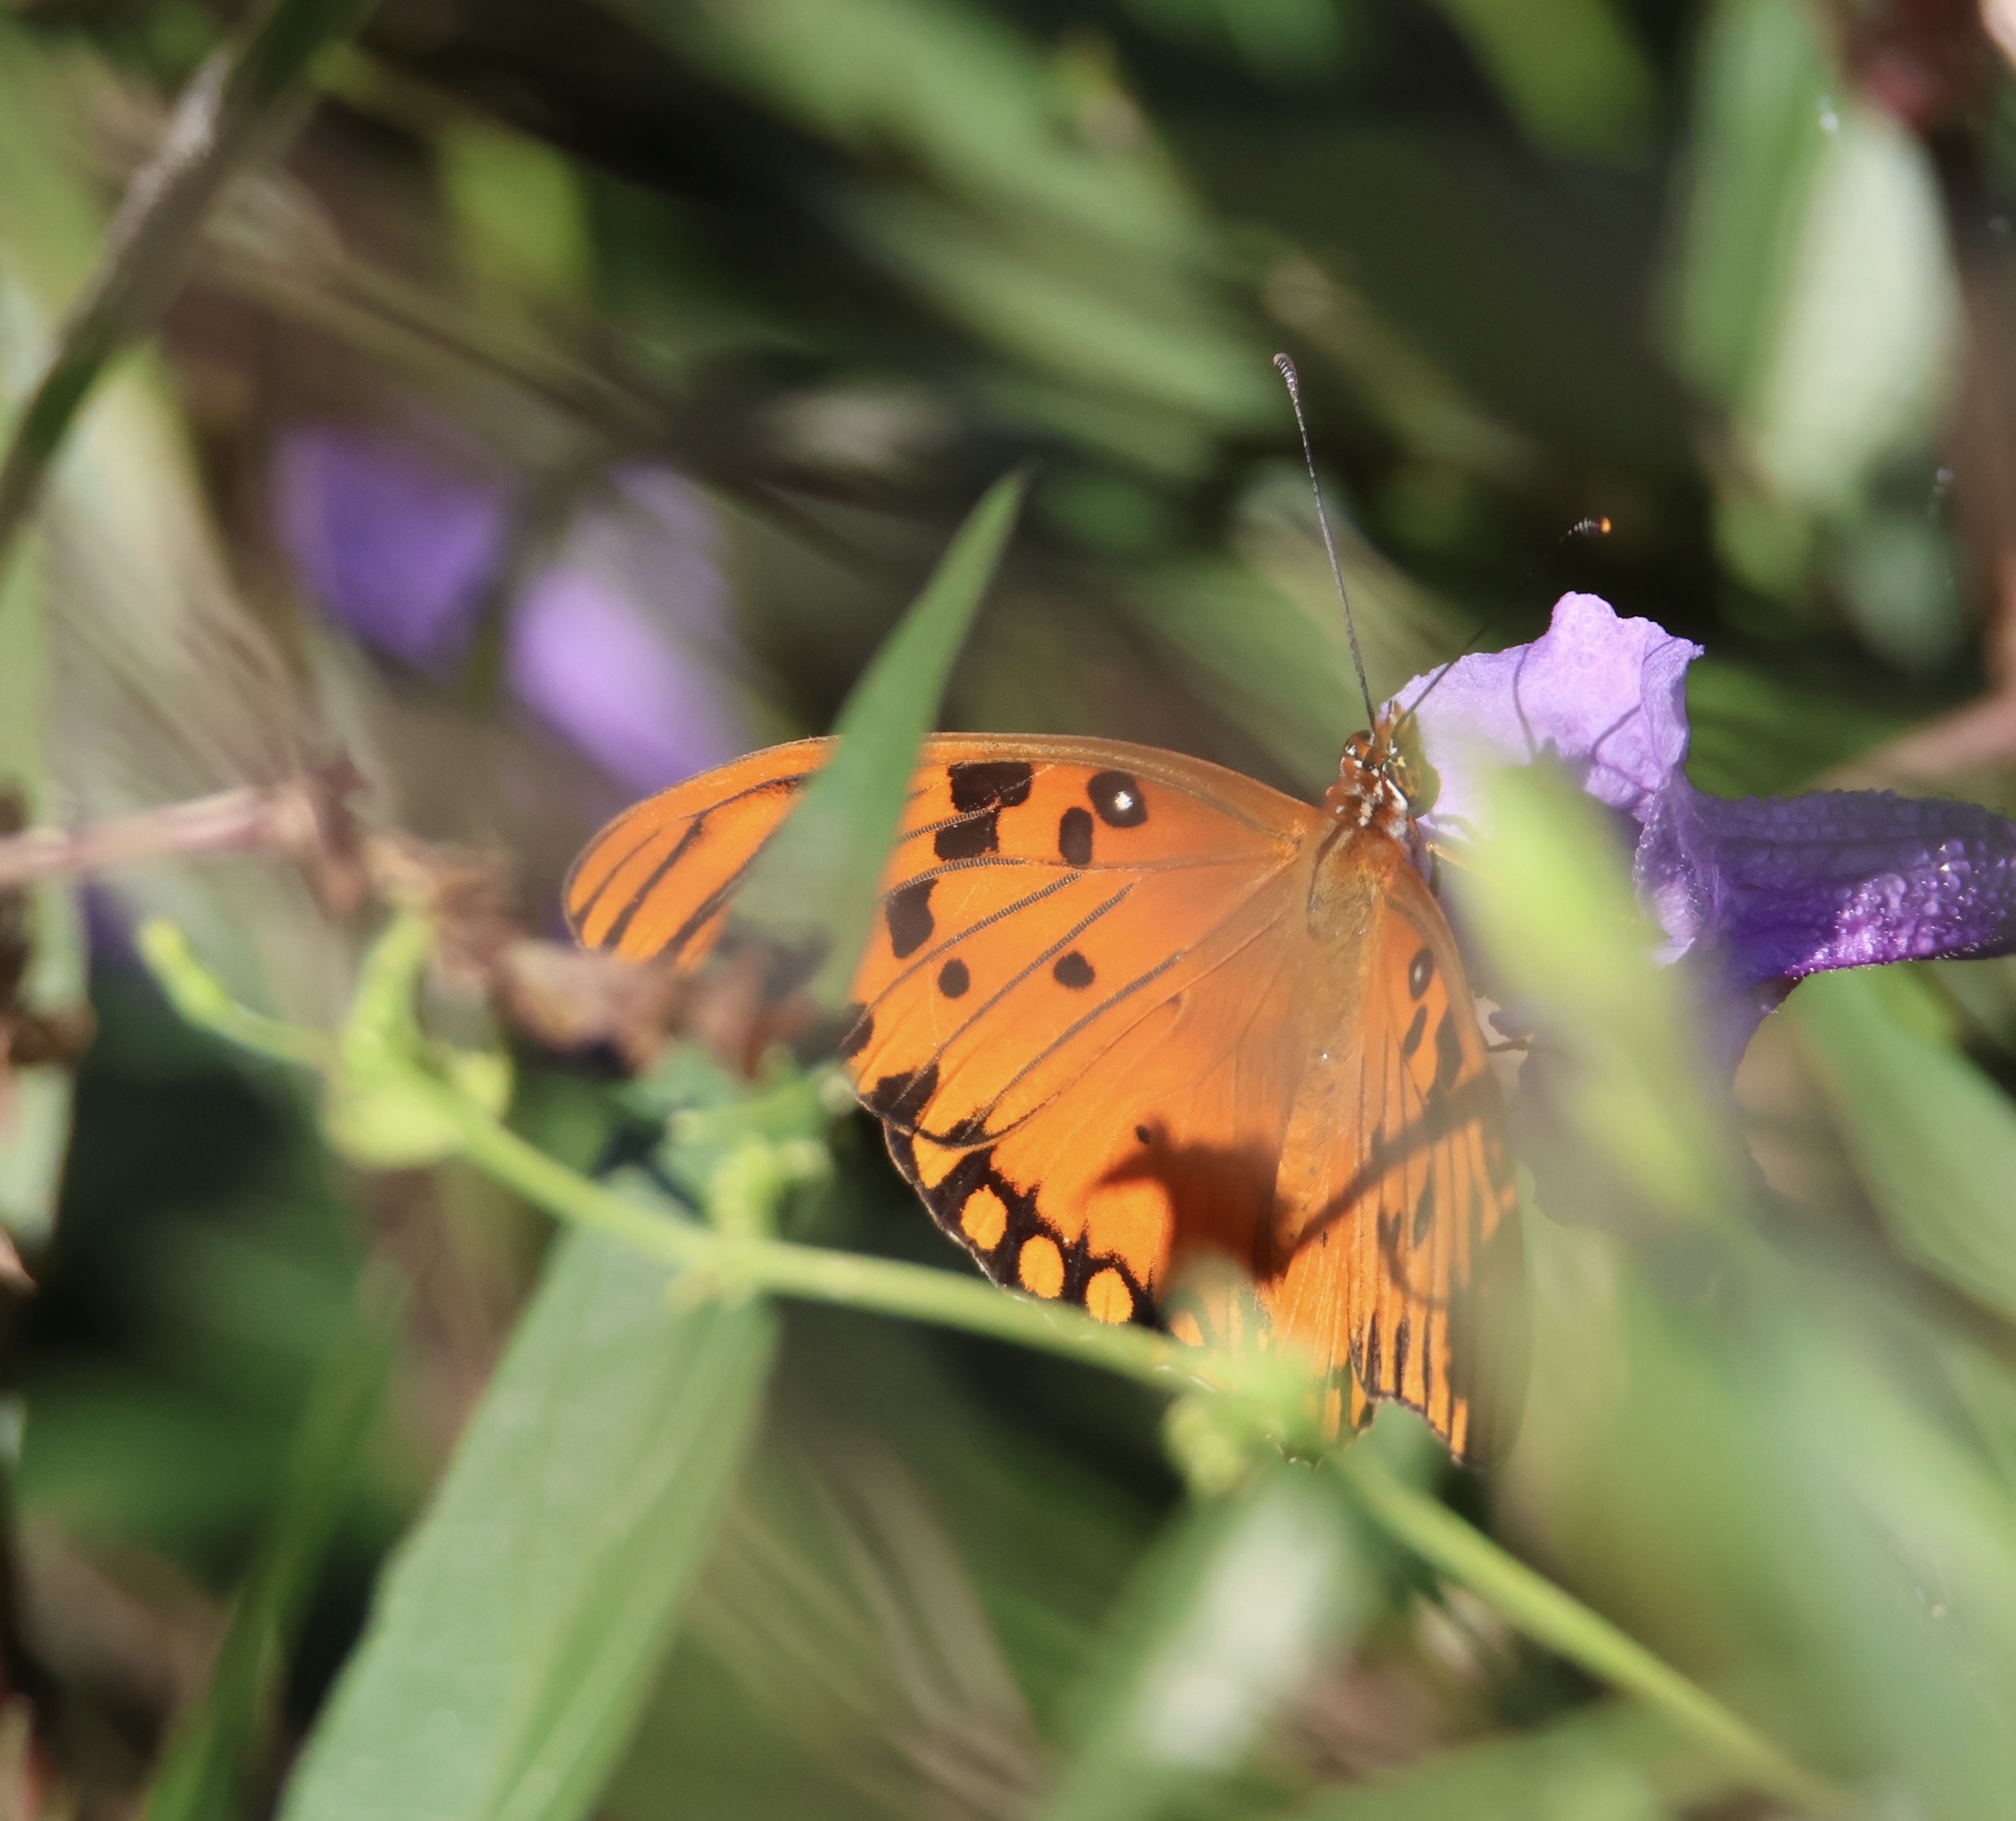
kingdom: Animalia
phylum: Arthropoda
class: Insecta
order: Lepidoptera
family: Nymphalidae
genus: Dione
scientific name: Dione vanillae
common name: Gulf fritillary
